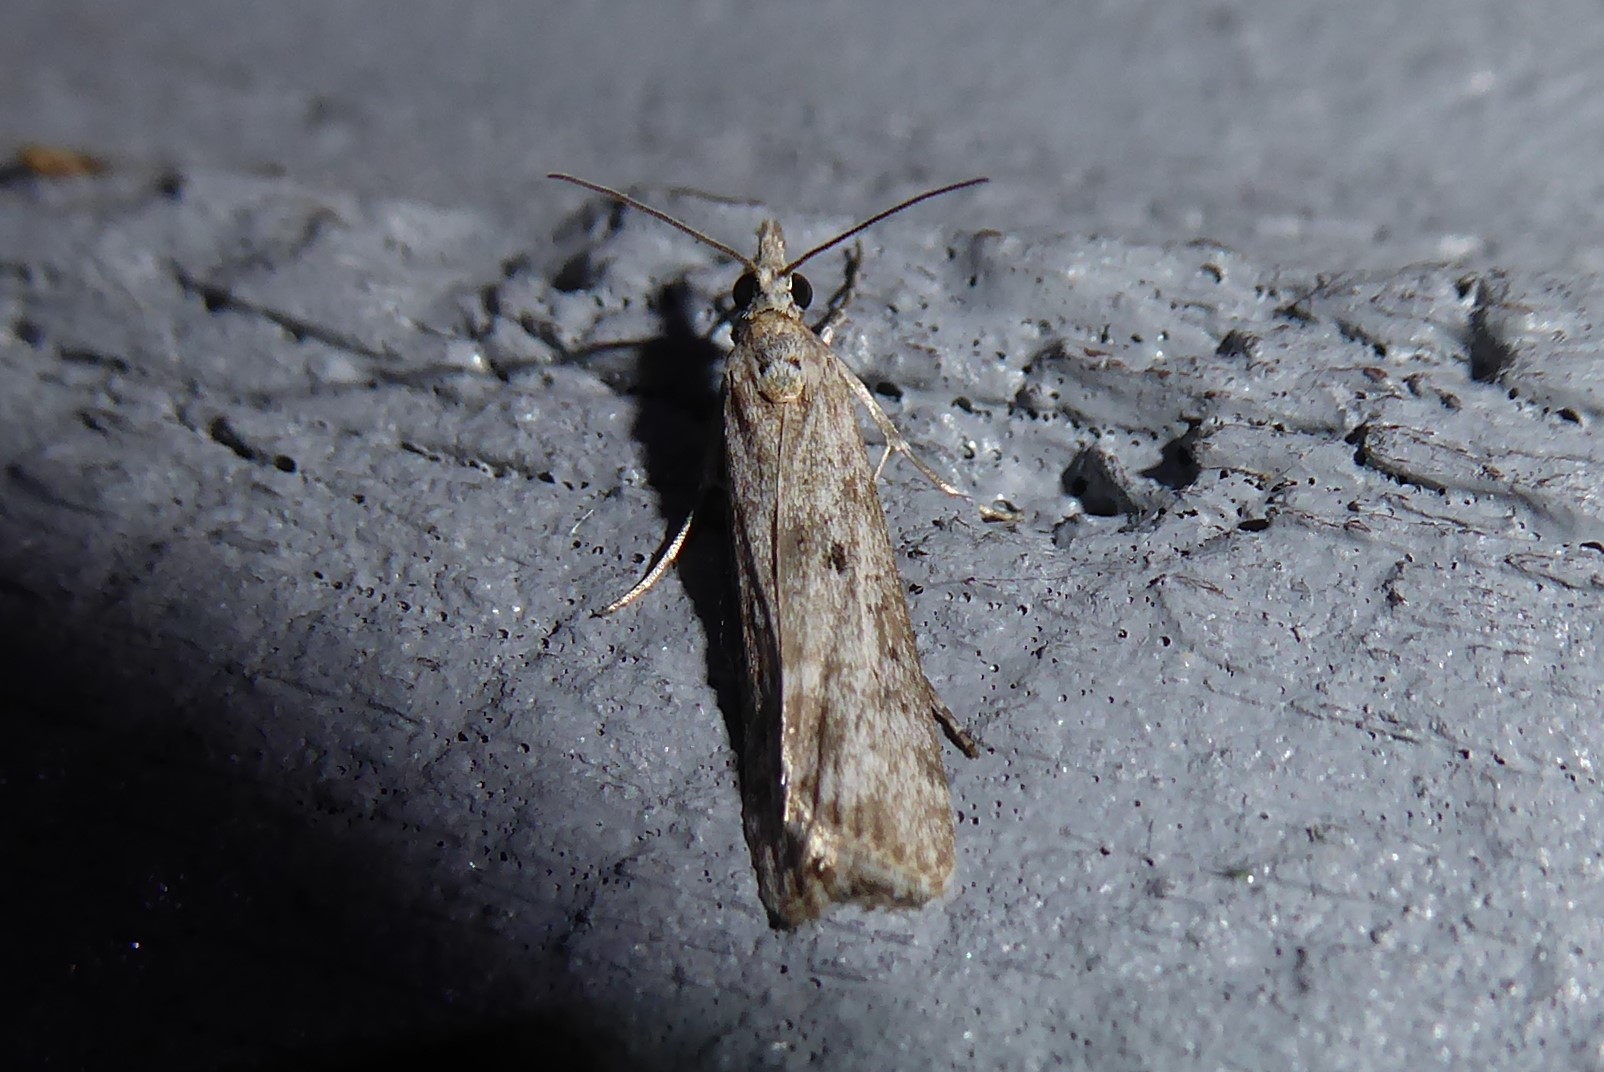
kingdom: Animalia
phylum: Arthropoda
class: Insecta
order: Lepidoptera
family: Crambidae
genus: Eudonia
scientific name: Eudonia leptalea
